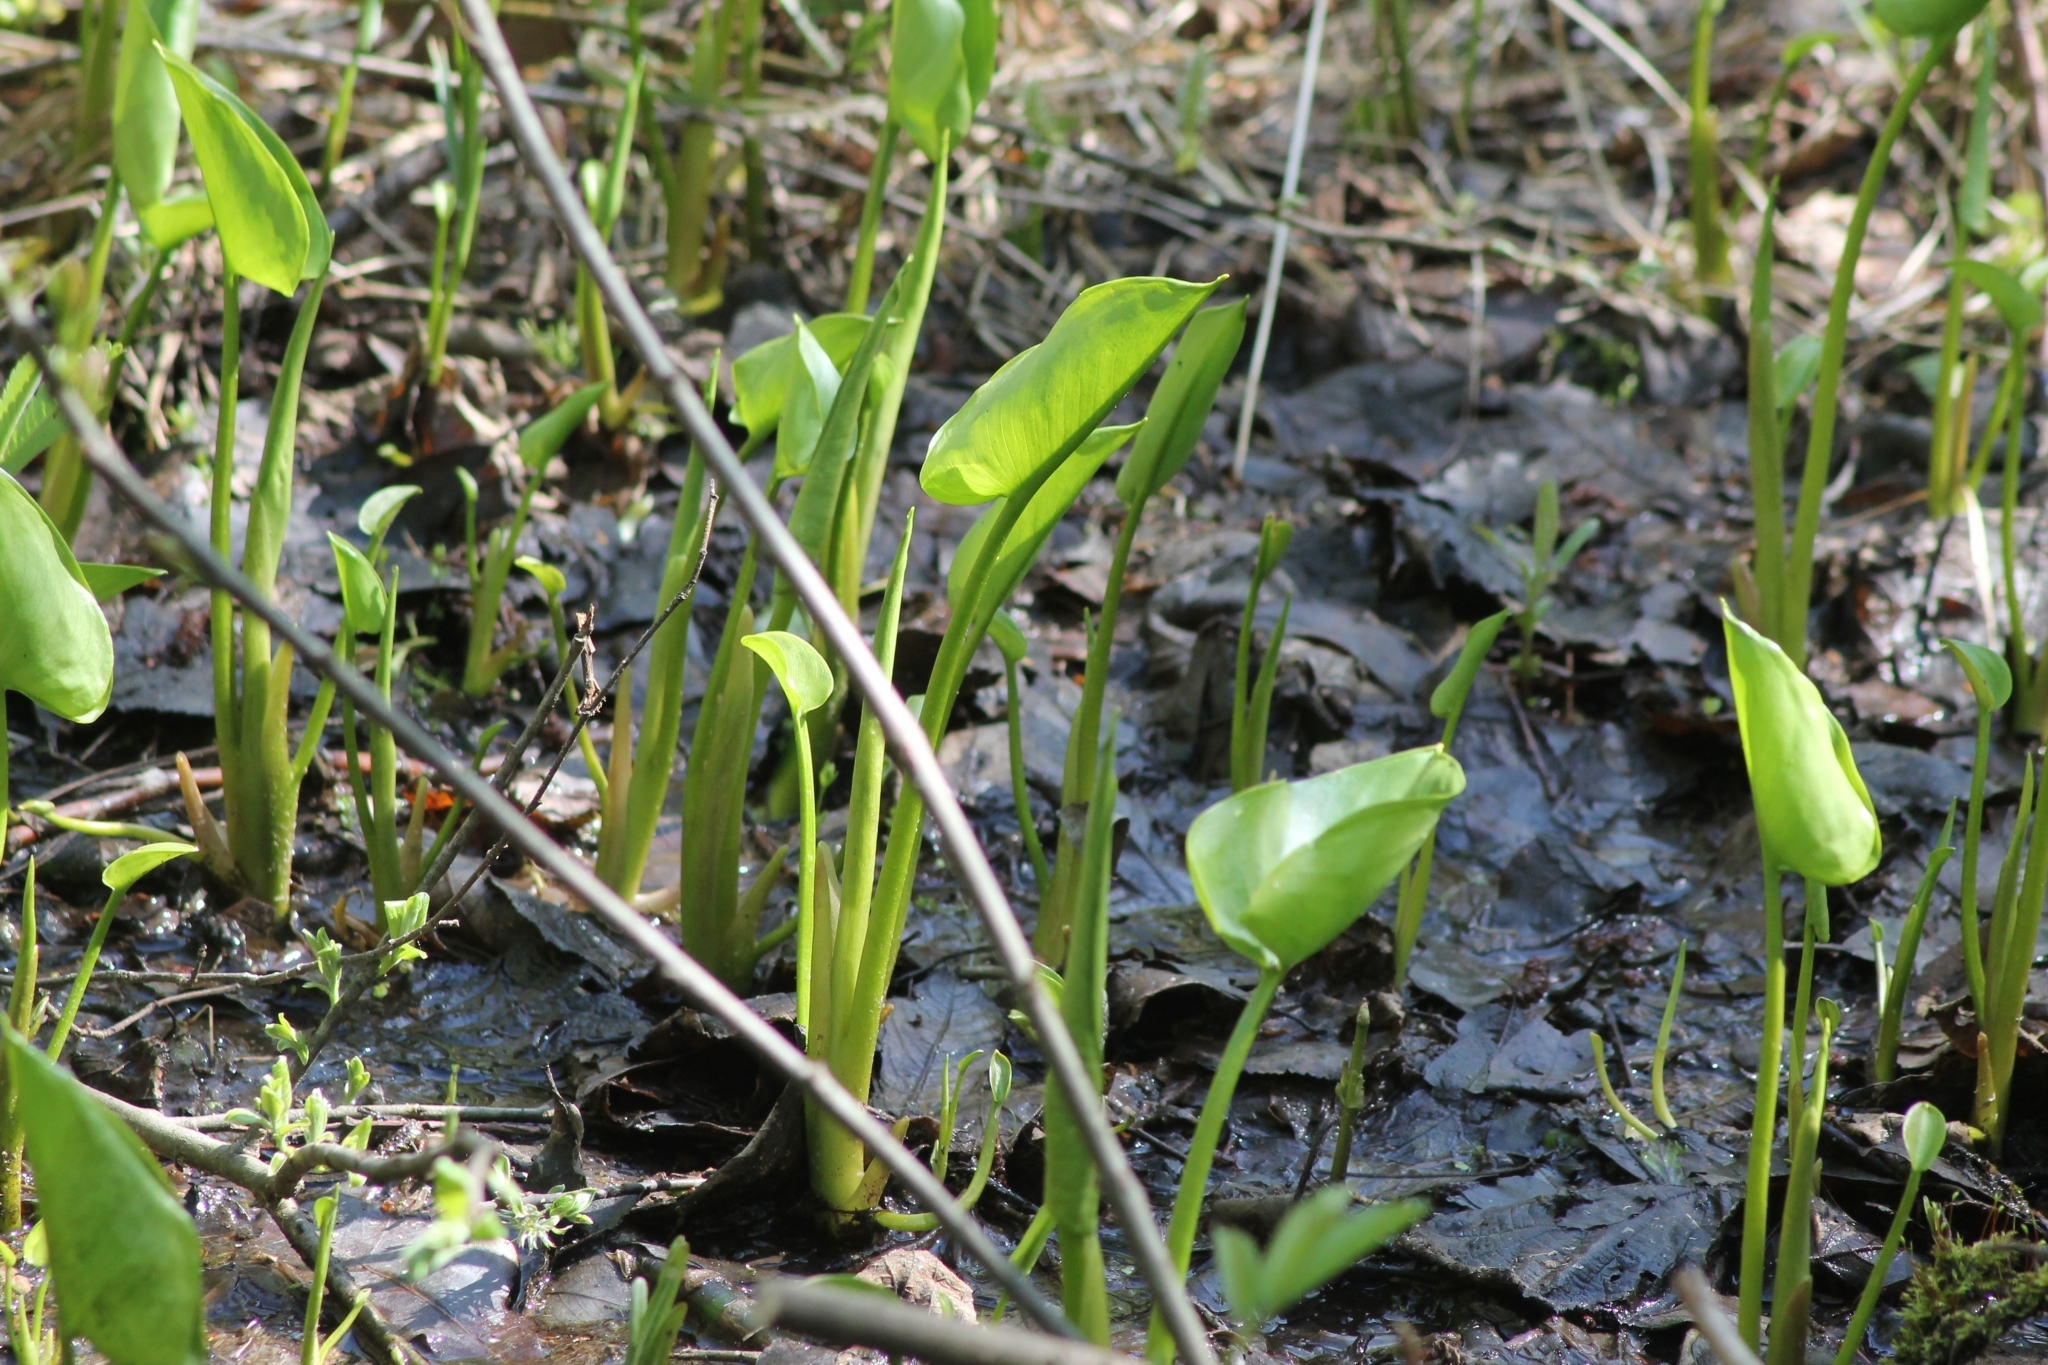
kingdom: Plantae
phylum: Tracheophyta
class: Liliopsida
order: Alismatales
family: Araceae
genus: Calla
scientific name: Calla palustris
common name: Bog arum
